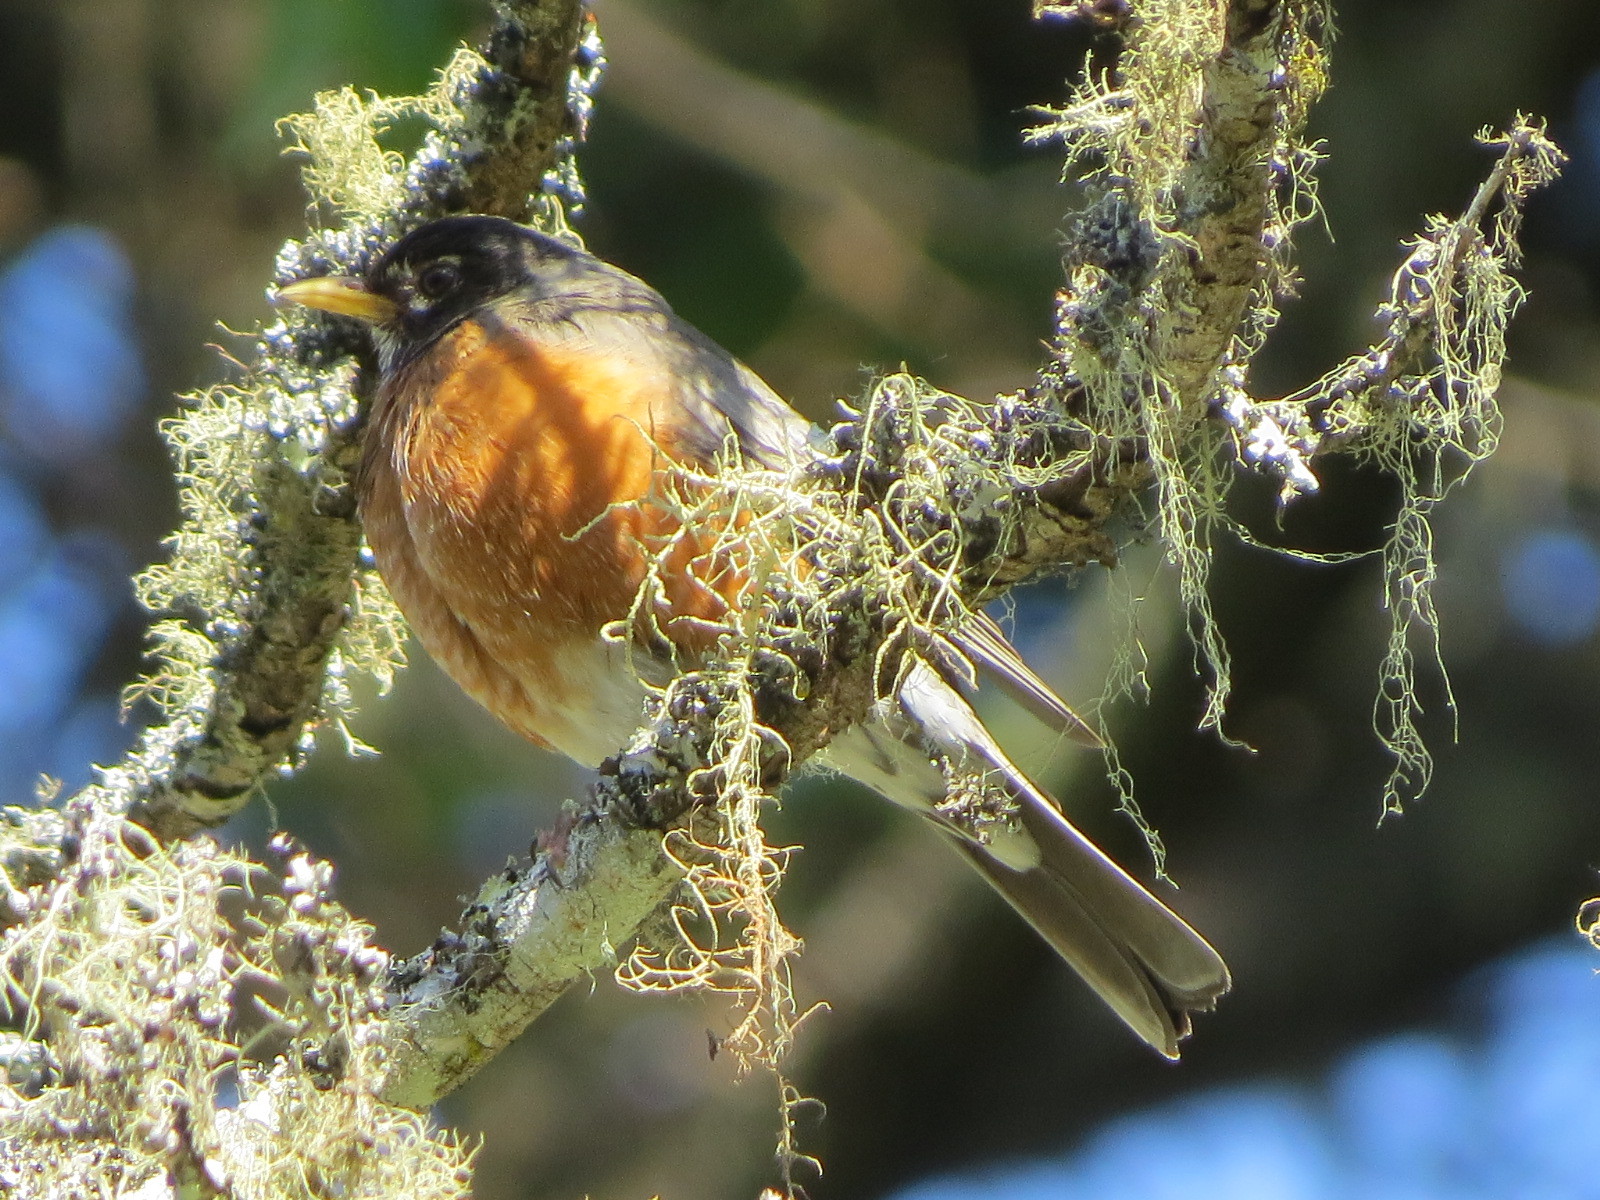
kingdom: Animalia
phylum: Chordata
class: Aves
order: Passeriformes
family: Turdidae
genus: Turdus
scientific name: Turdus migratorius
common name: American robin
